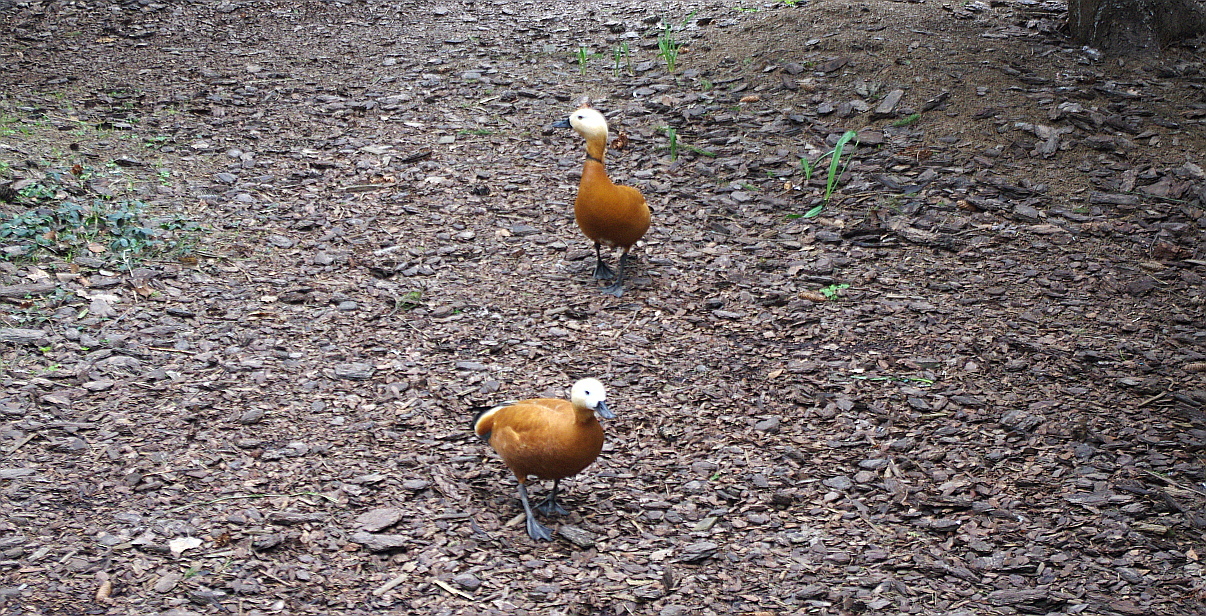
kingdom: Animalia
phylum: Chordata
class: Aves
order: Anseriformes
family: Anatidae
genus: Tadorna
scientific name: Tadorna ferruginea
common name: Ruddy shelduck
